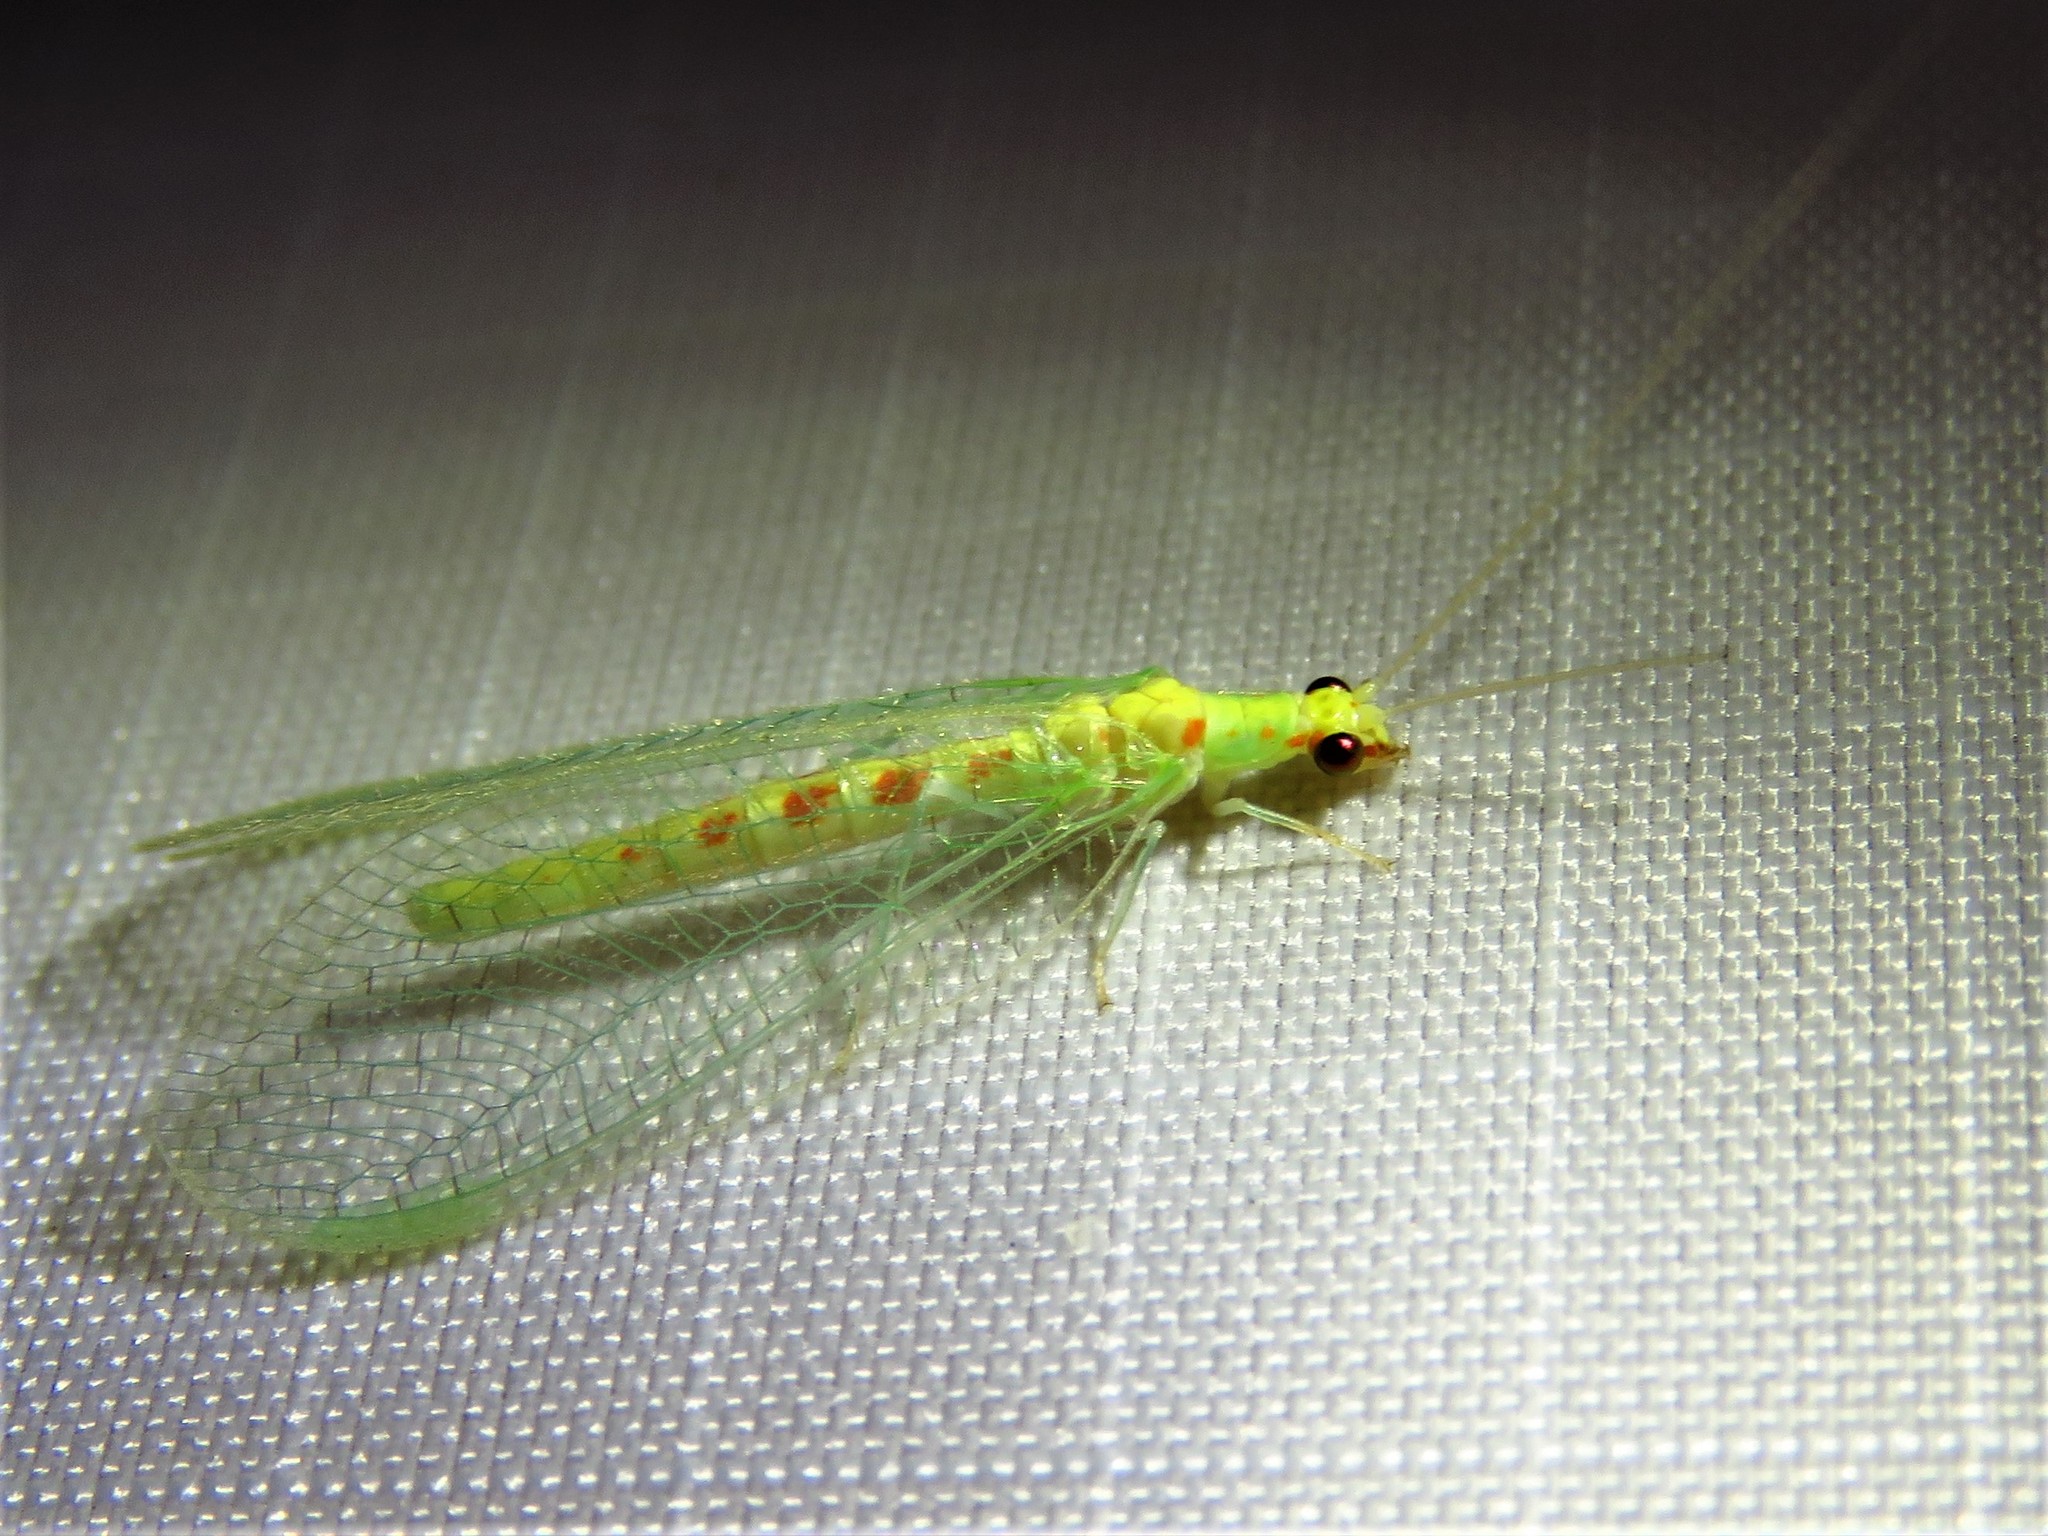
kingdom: Animalia
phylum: Arthropoda
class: Insecta
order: Neuroptera
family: Chrysopidae
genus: Chrysopa
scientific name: Chrysopa quadripunctata
